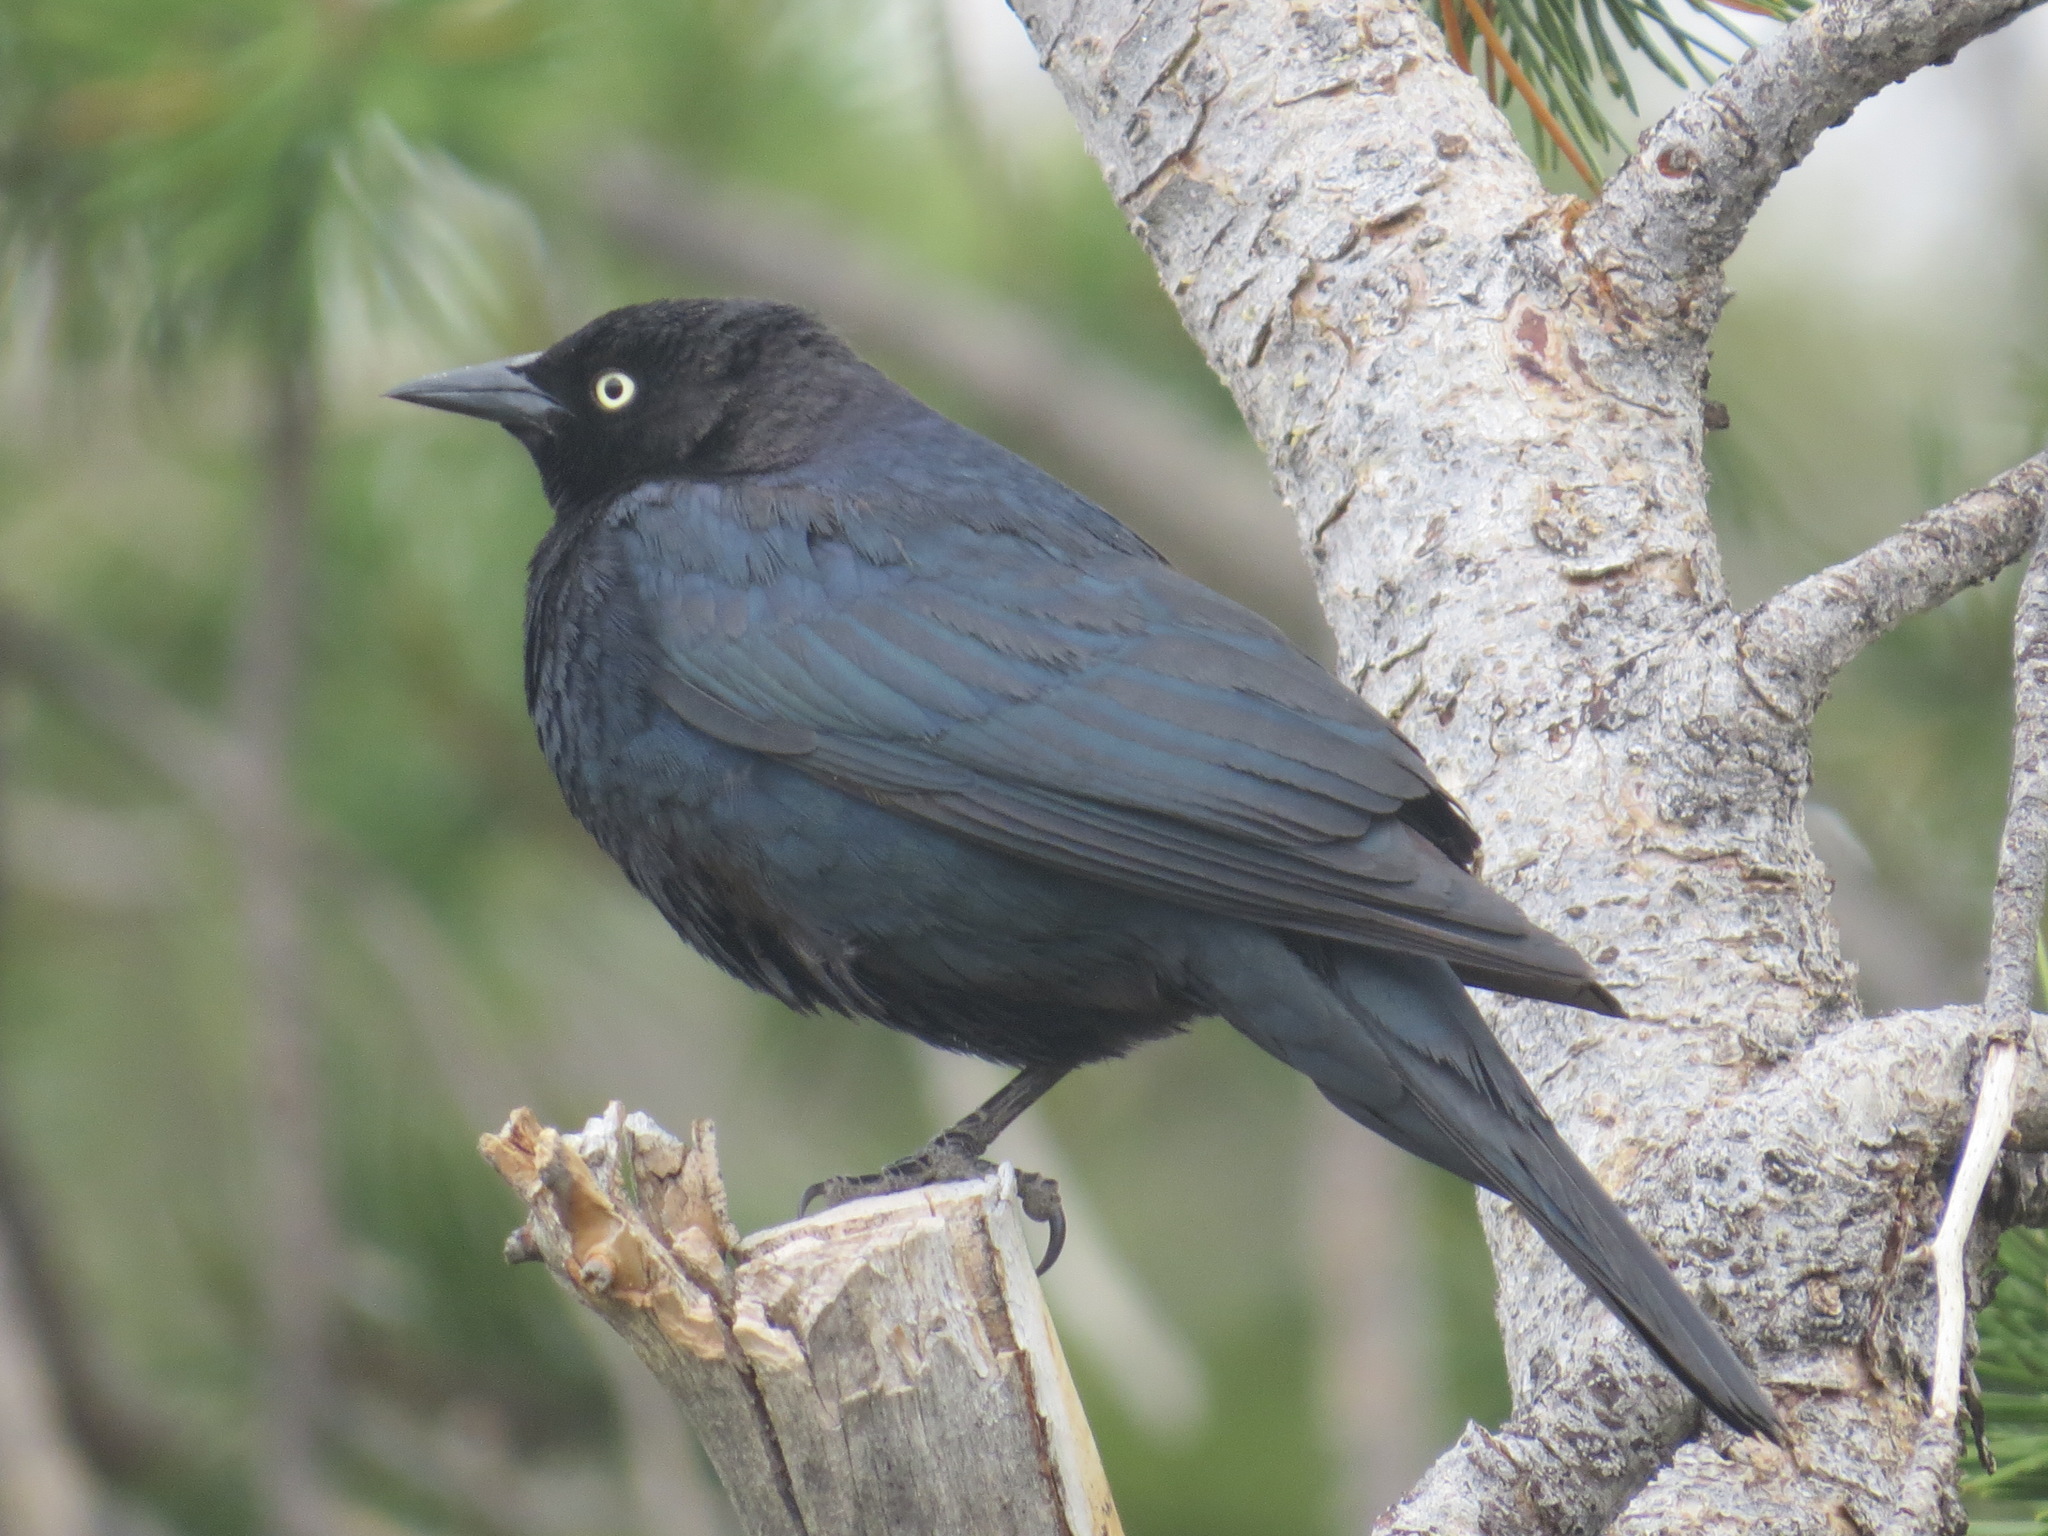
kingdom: Animalia
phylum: Chordata
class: Aves
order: Passeriformes
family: Icteridae
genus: Euphagus
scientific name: Euphagus cyanocephalus
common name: Brewer's blackbird
